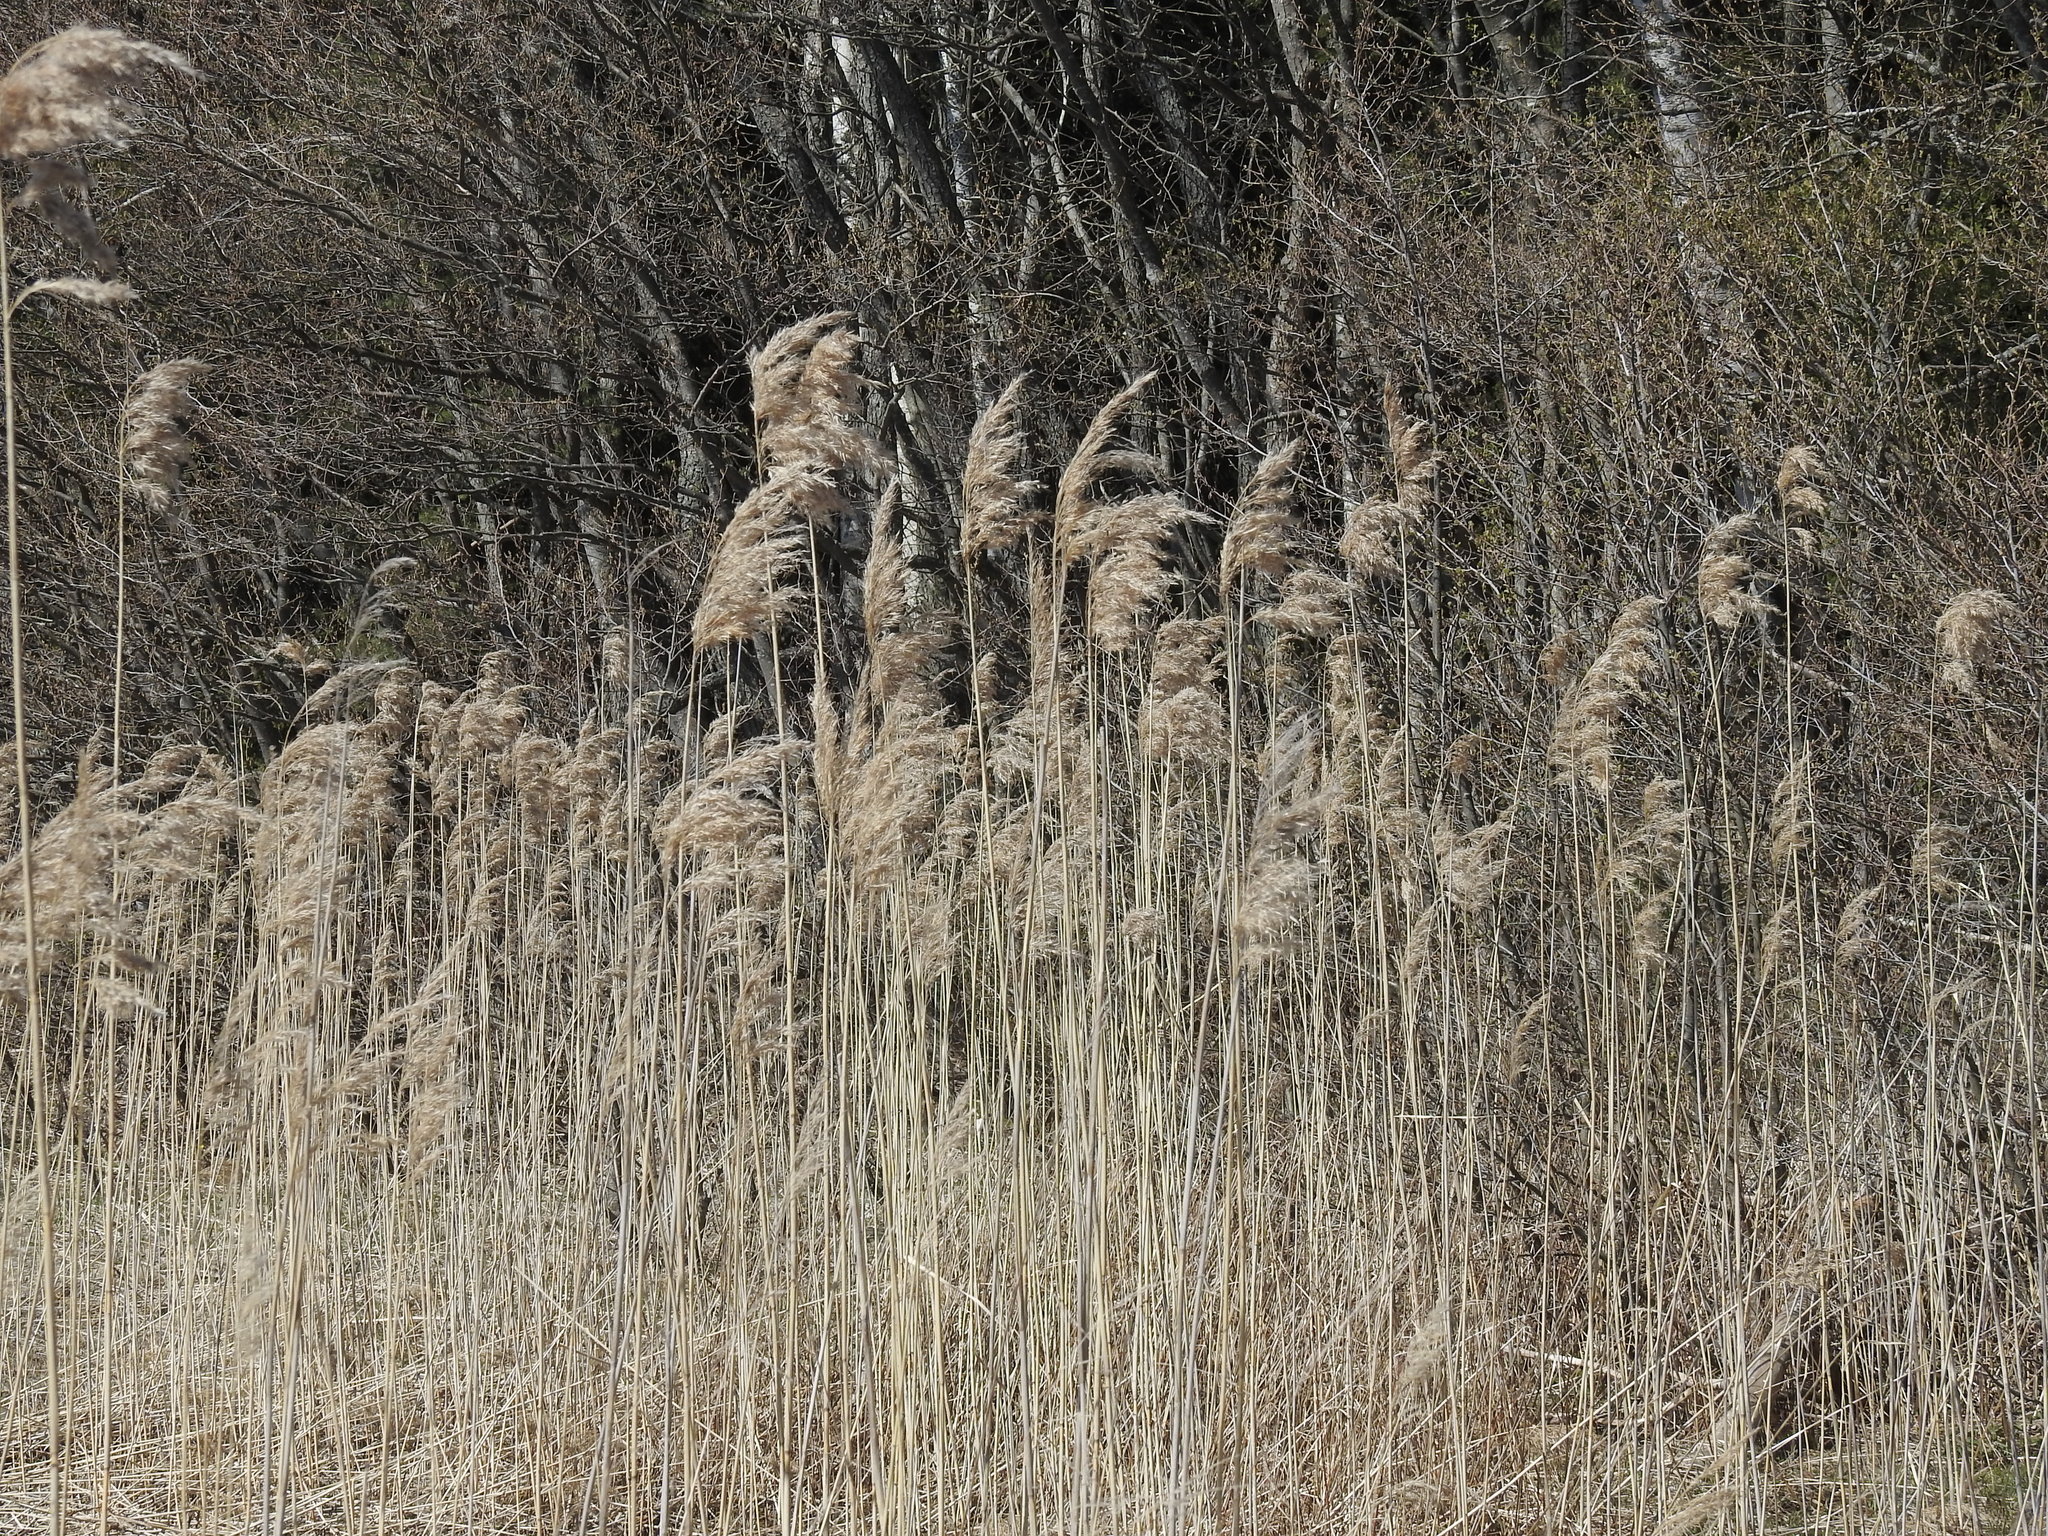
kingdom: Plantae
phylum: Tracheophyta
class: Liliopsida
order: Poales
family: Poaceae
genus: Phragmites
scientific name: Phragmites australis
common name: Common reed
